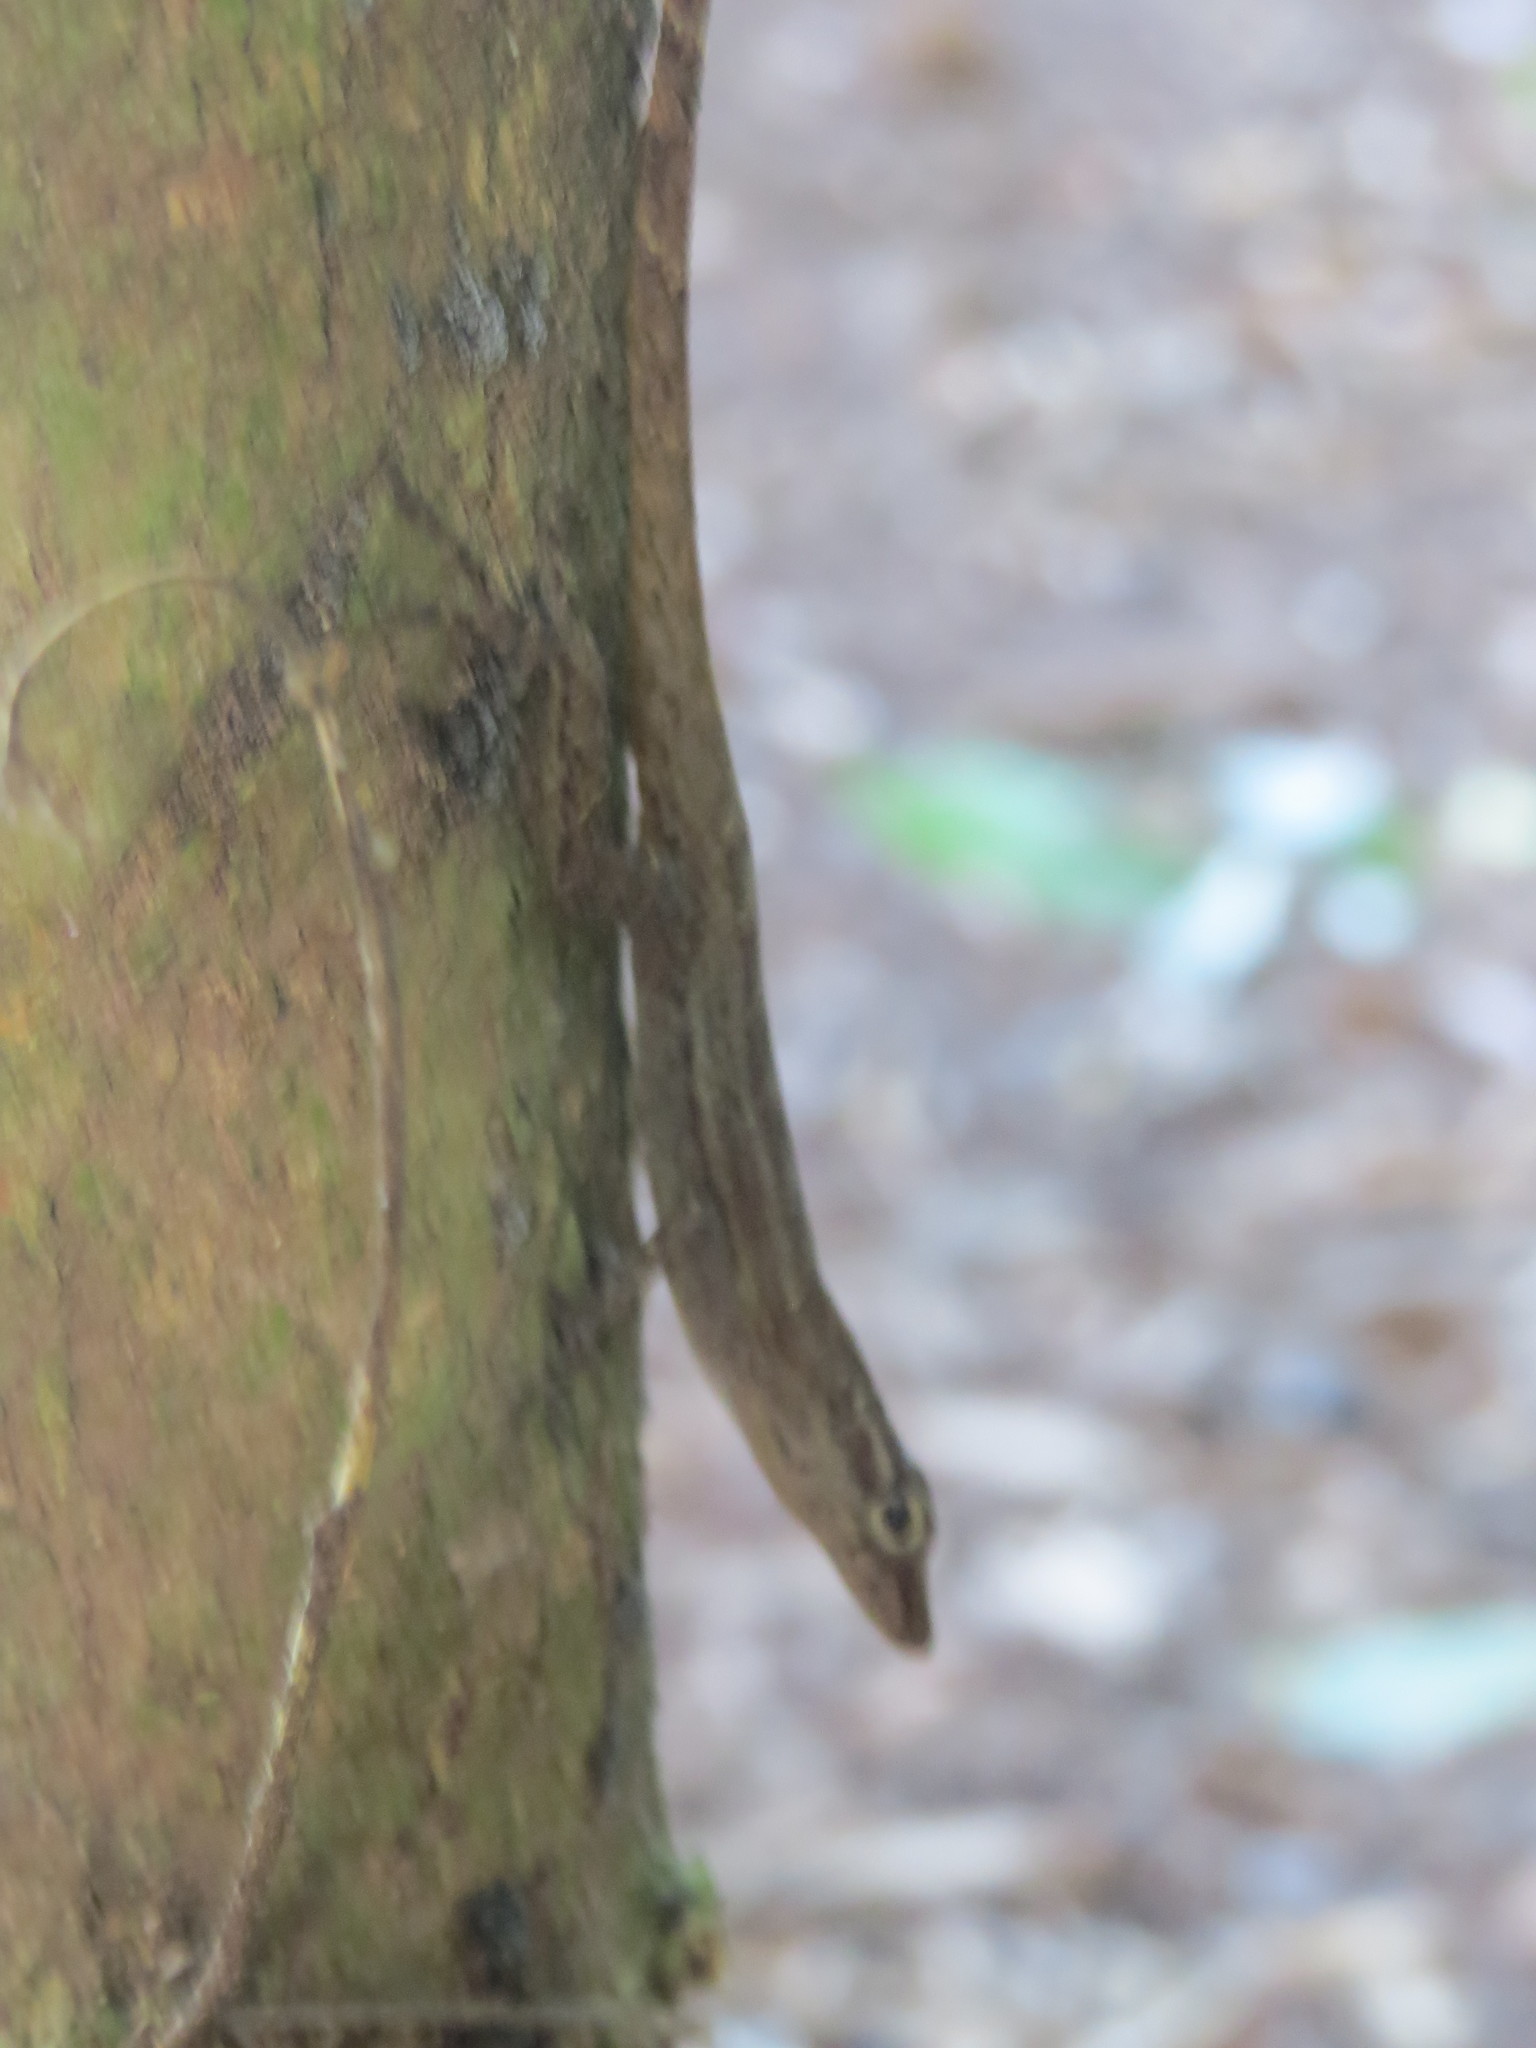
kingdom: Animalia
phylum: Chordata
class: Squamata
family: Dactyloidae
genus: Anolis
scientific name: Anolis pinchoti
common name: Crab cay anole
